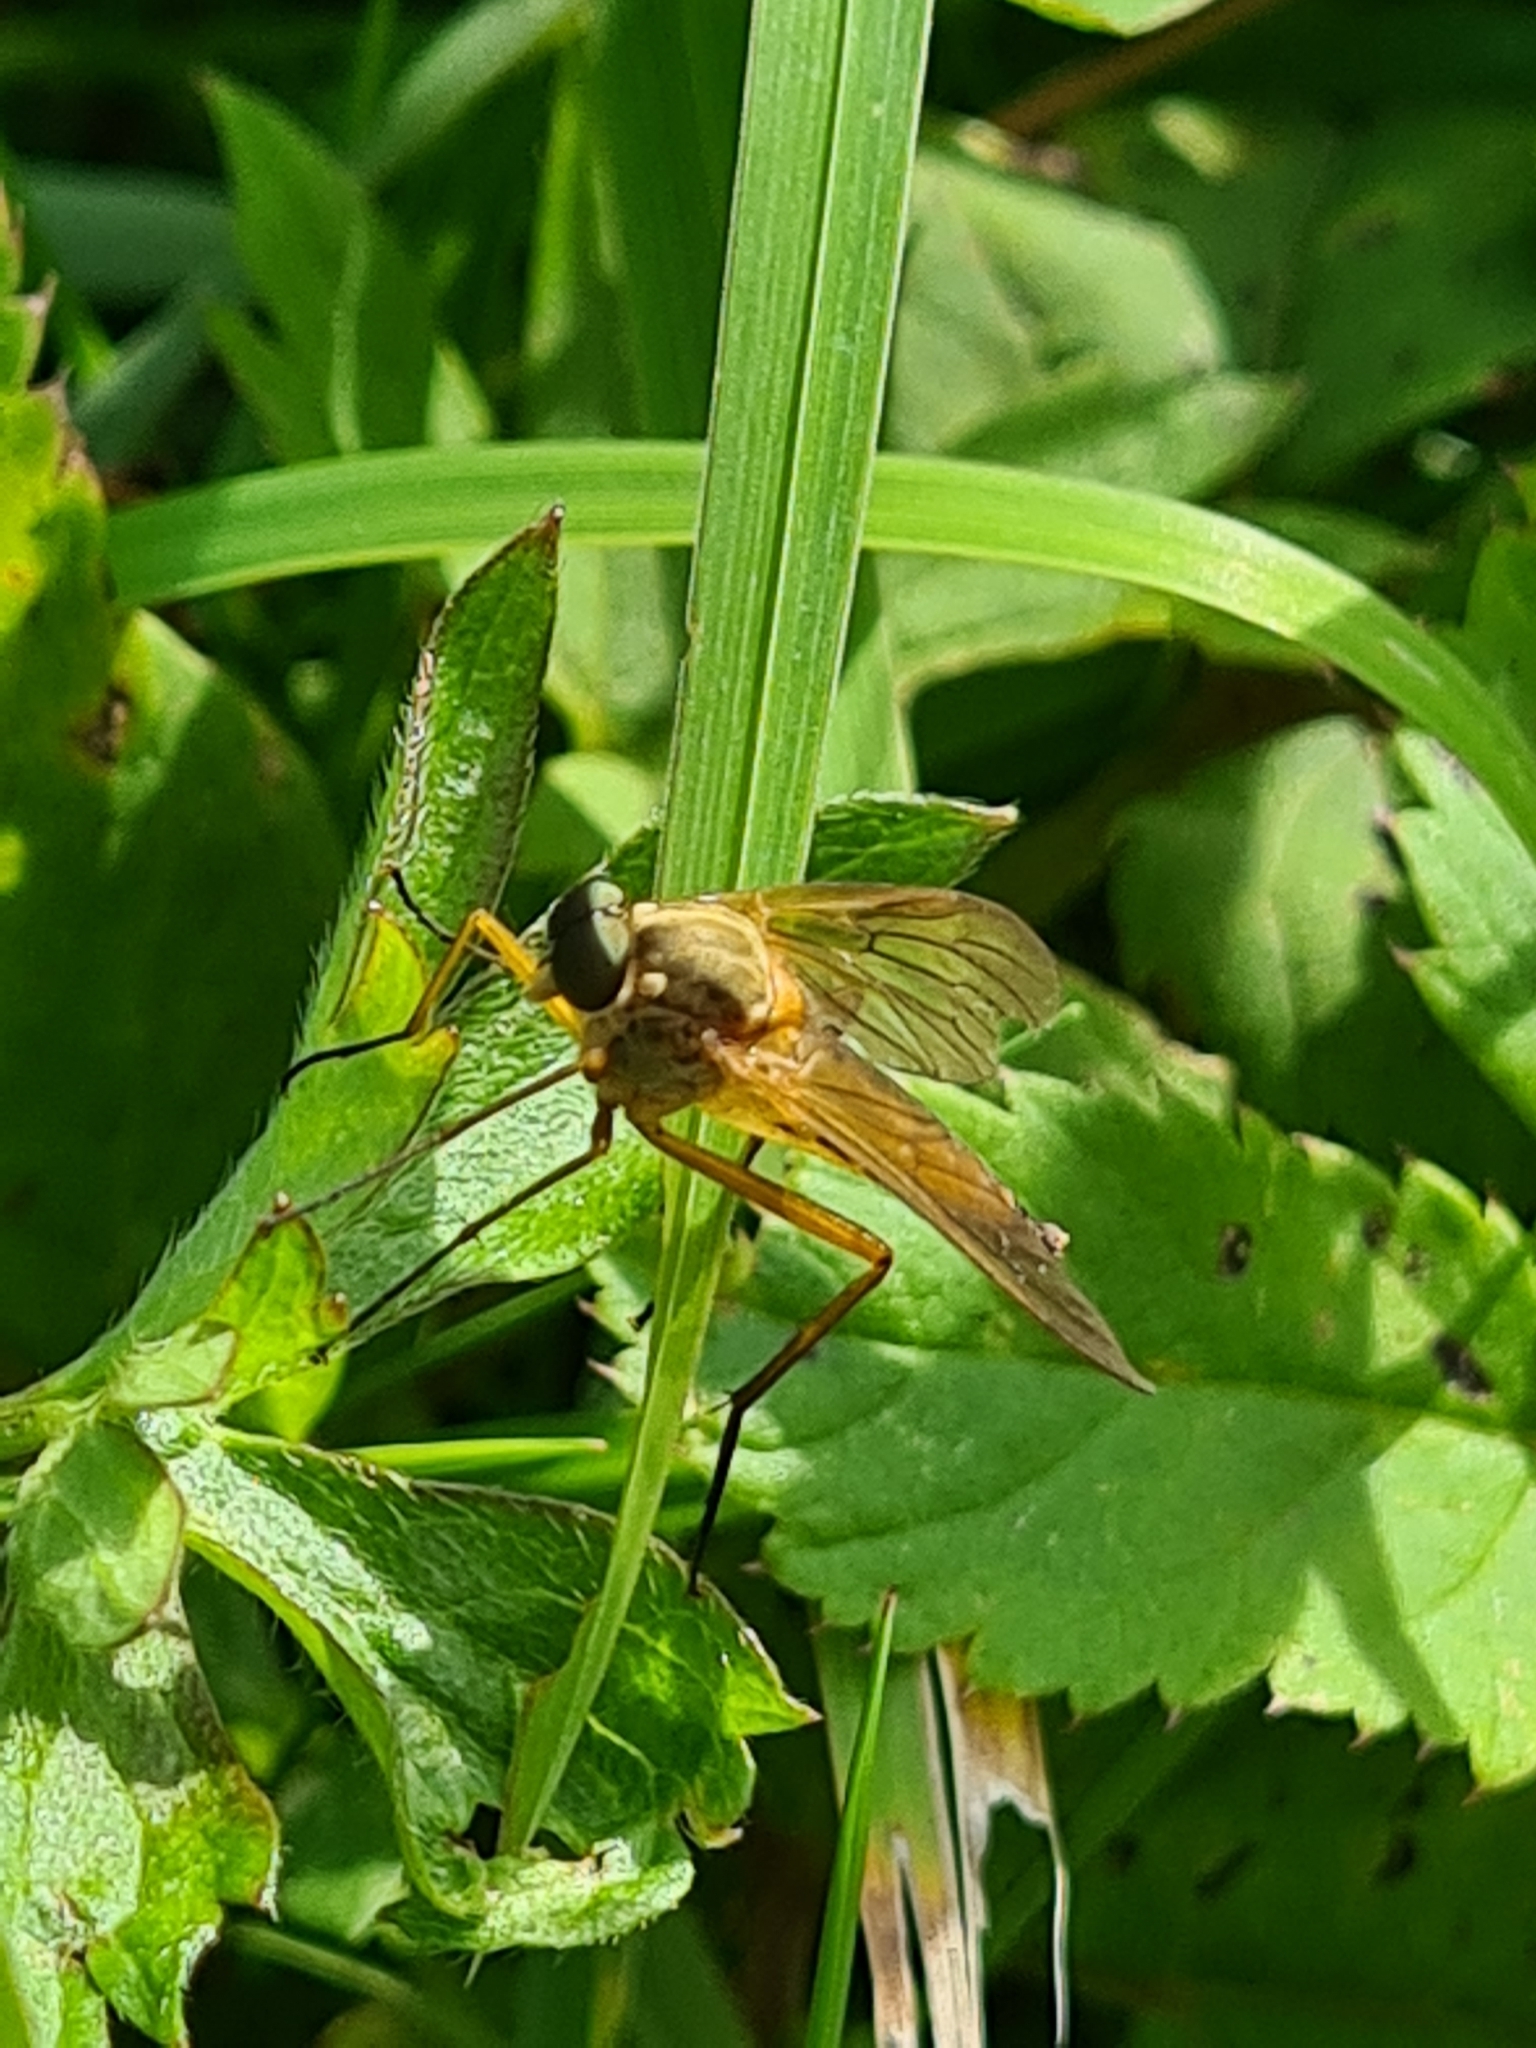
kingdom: Animalia
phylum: Arthropoda
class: Insecta
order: Diptera
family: Rhagionidae
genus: Rhagio
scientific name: Rhagio tringaria
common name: Marsh snipefly
